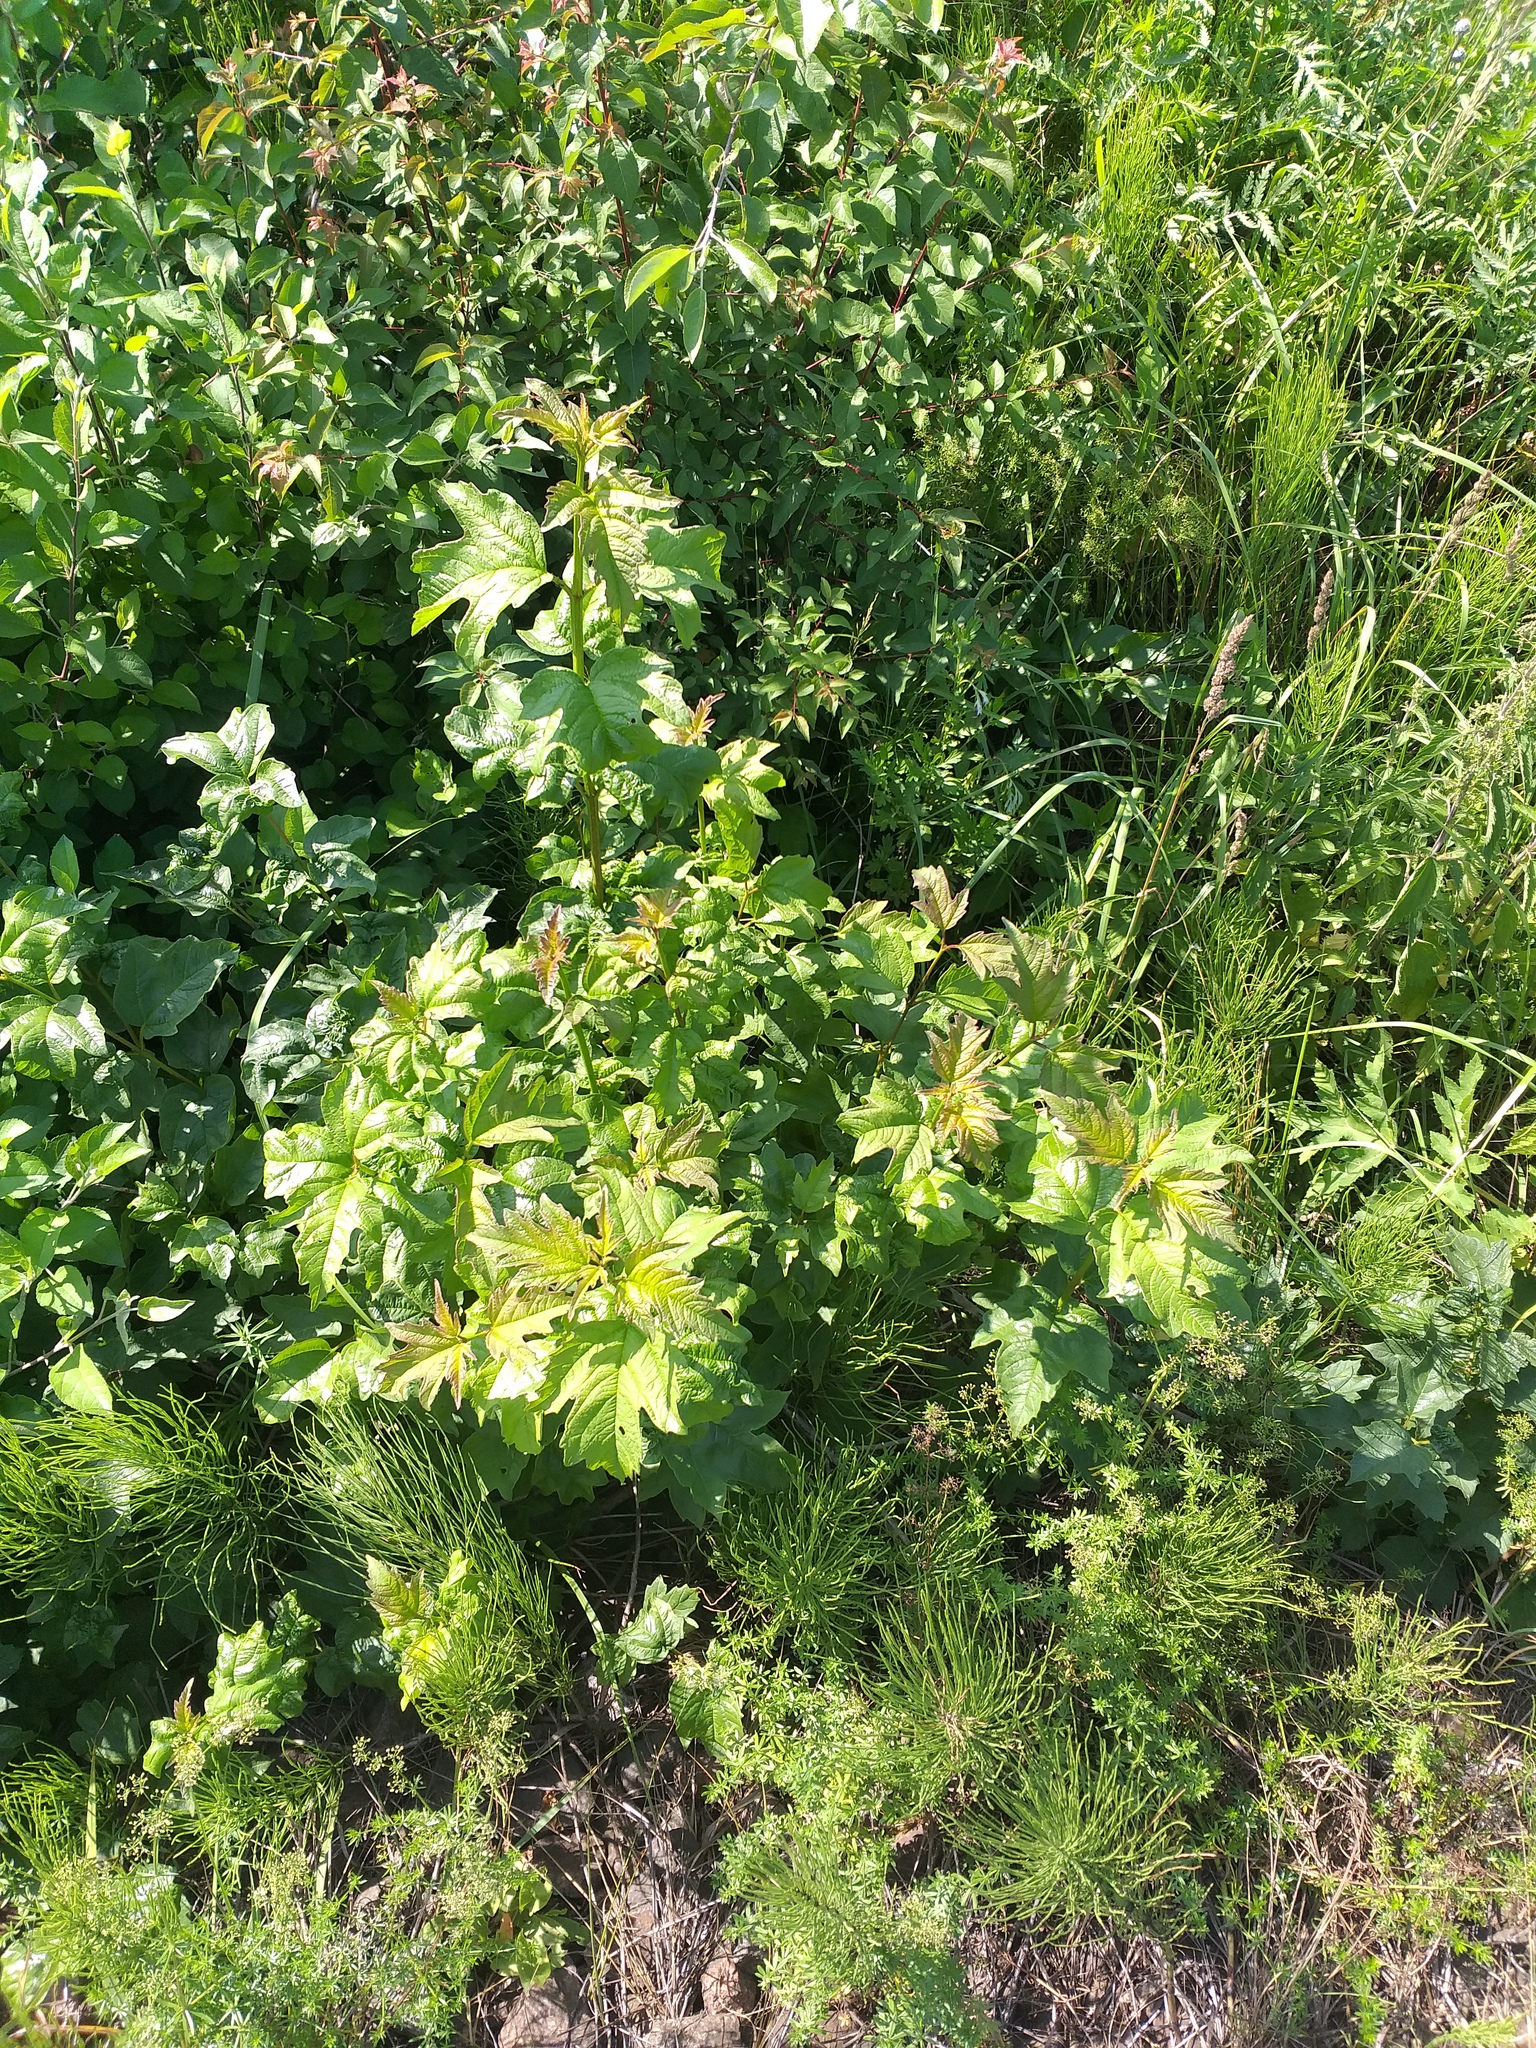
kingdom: Plantae
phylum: Tracheophyta
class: Magnoliopsida
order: Dipsacales
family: Viburnaceae
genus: Viburnum
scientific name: Viburnum opulus
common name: Guelder-rose
